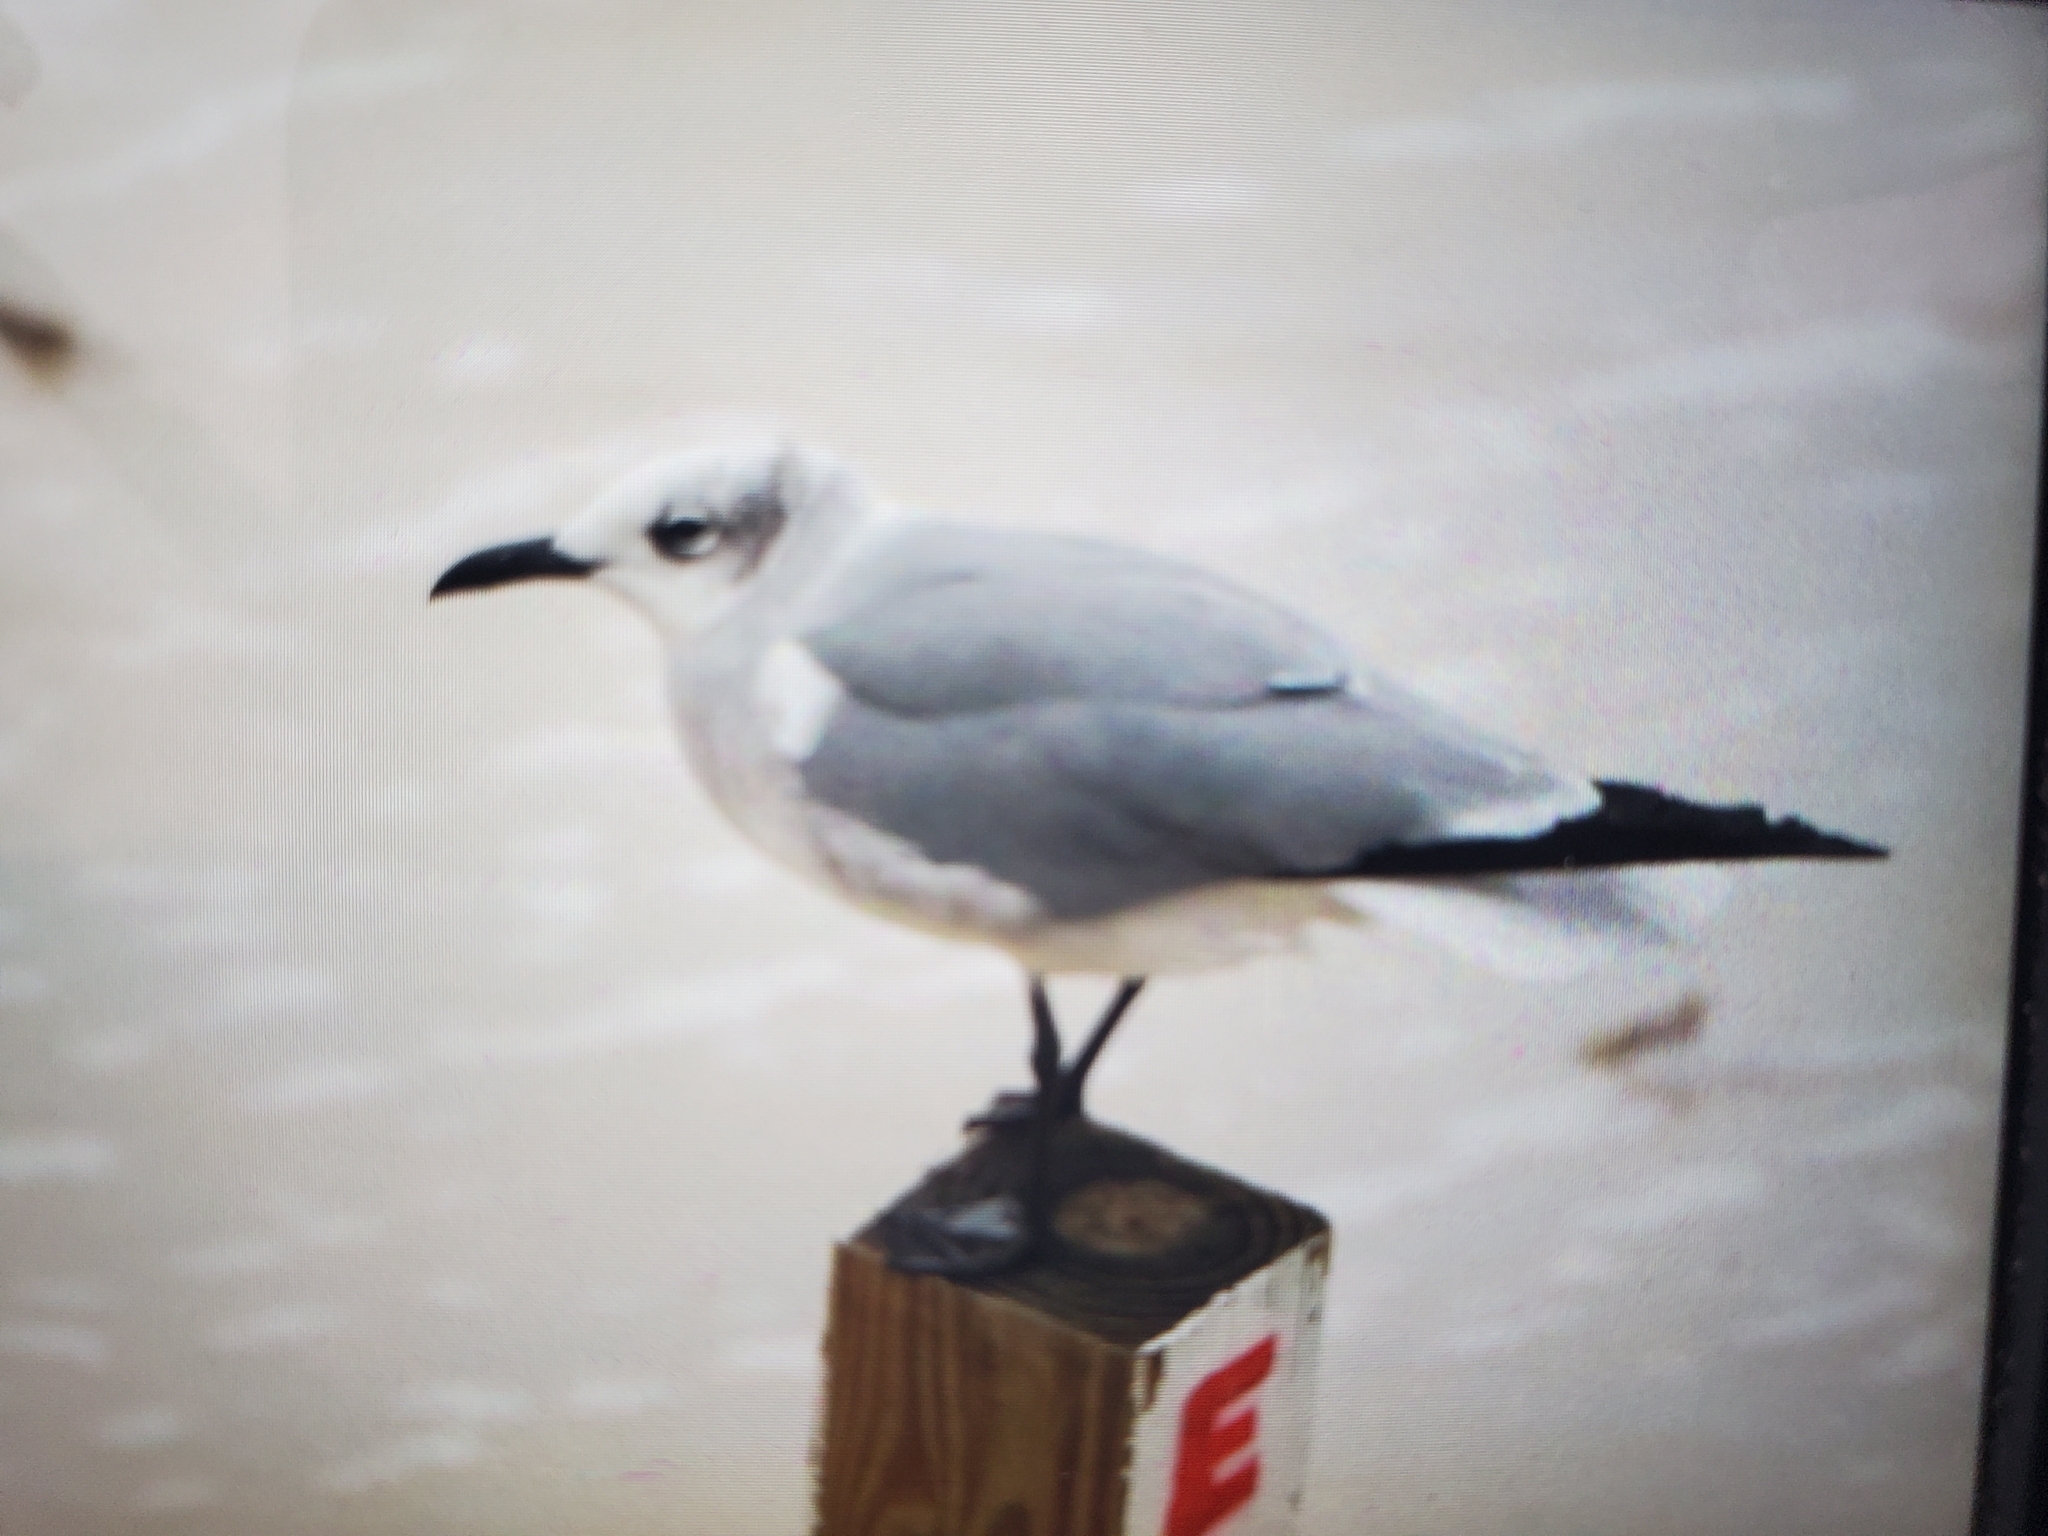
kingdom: Animalia
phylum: Chordata
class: Aves
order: Charadriiformes
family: Laridae
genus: Leucophaeus
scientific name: Leucophaeus atricilla
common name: Laughing gull
